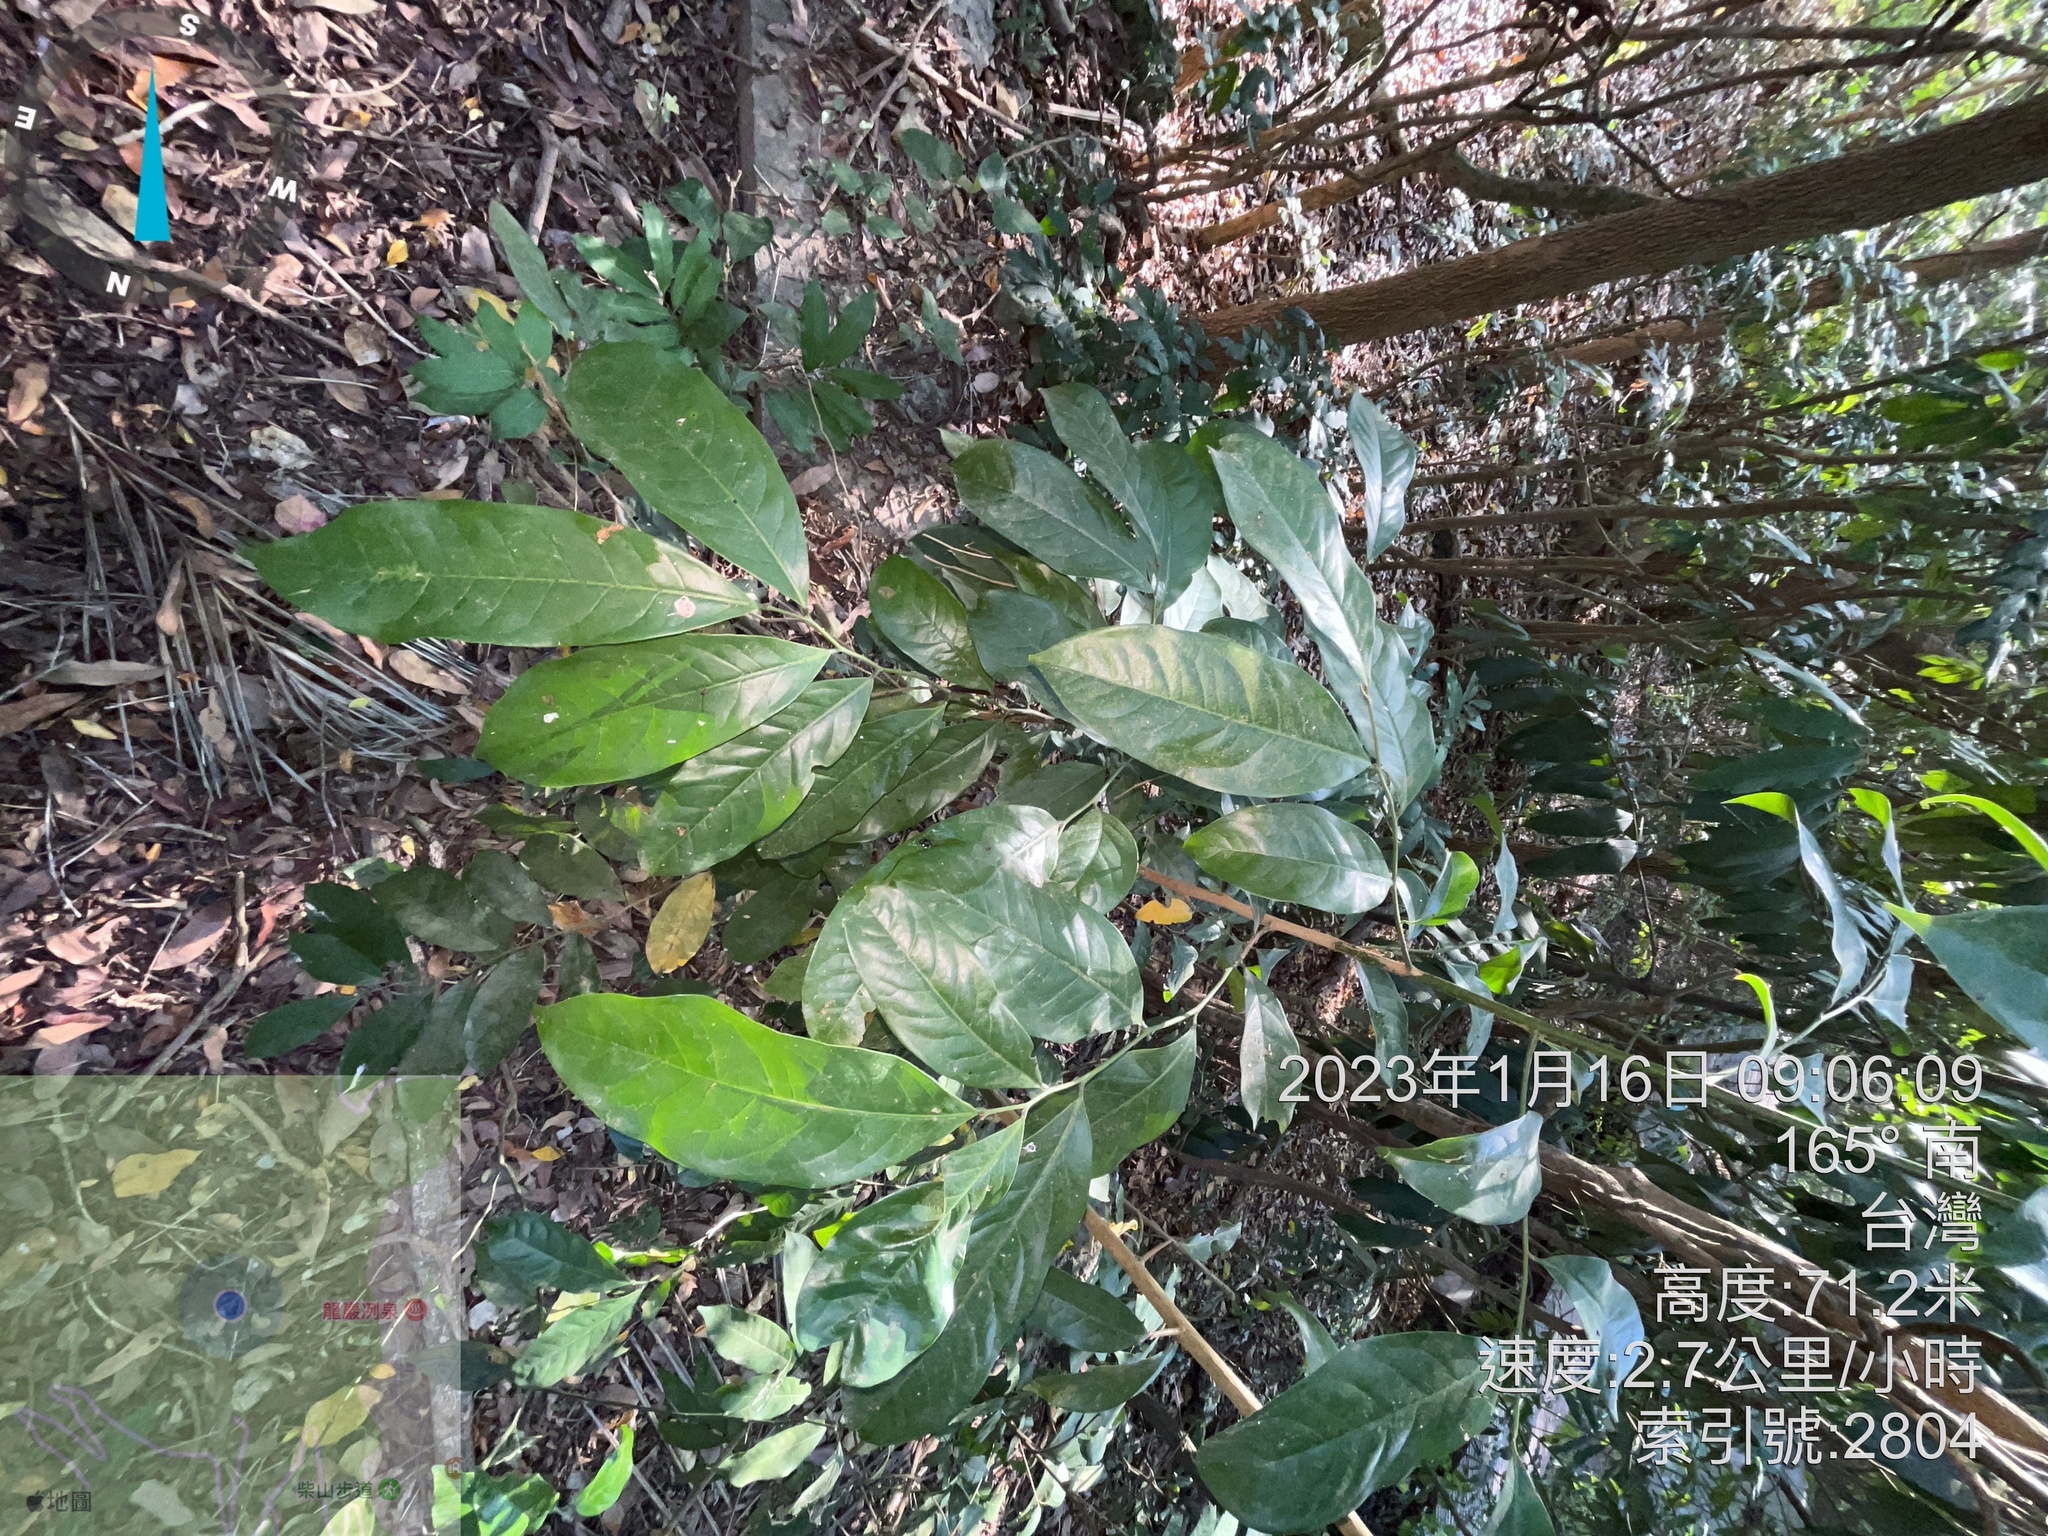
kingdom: Plantae
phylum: Tracheophyta
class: Magnoliopsida
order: Santalales
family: Opiliaceae
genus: Champereia
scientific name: Champereia manillana
